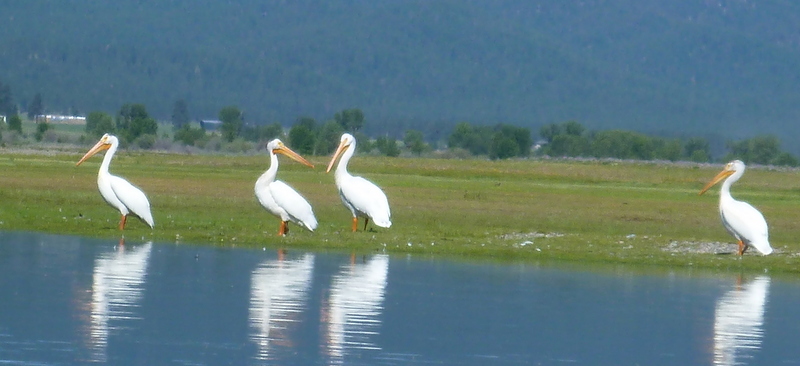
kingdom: Animalia
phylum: Chordata
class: Aves
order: Pelecaniformes
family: Pelecanidae
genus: Pelecanus
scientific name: Pelecanus erythrorhynchos
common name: American white pelican
